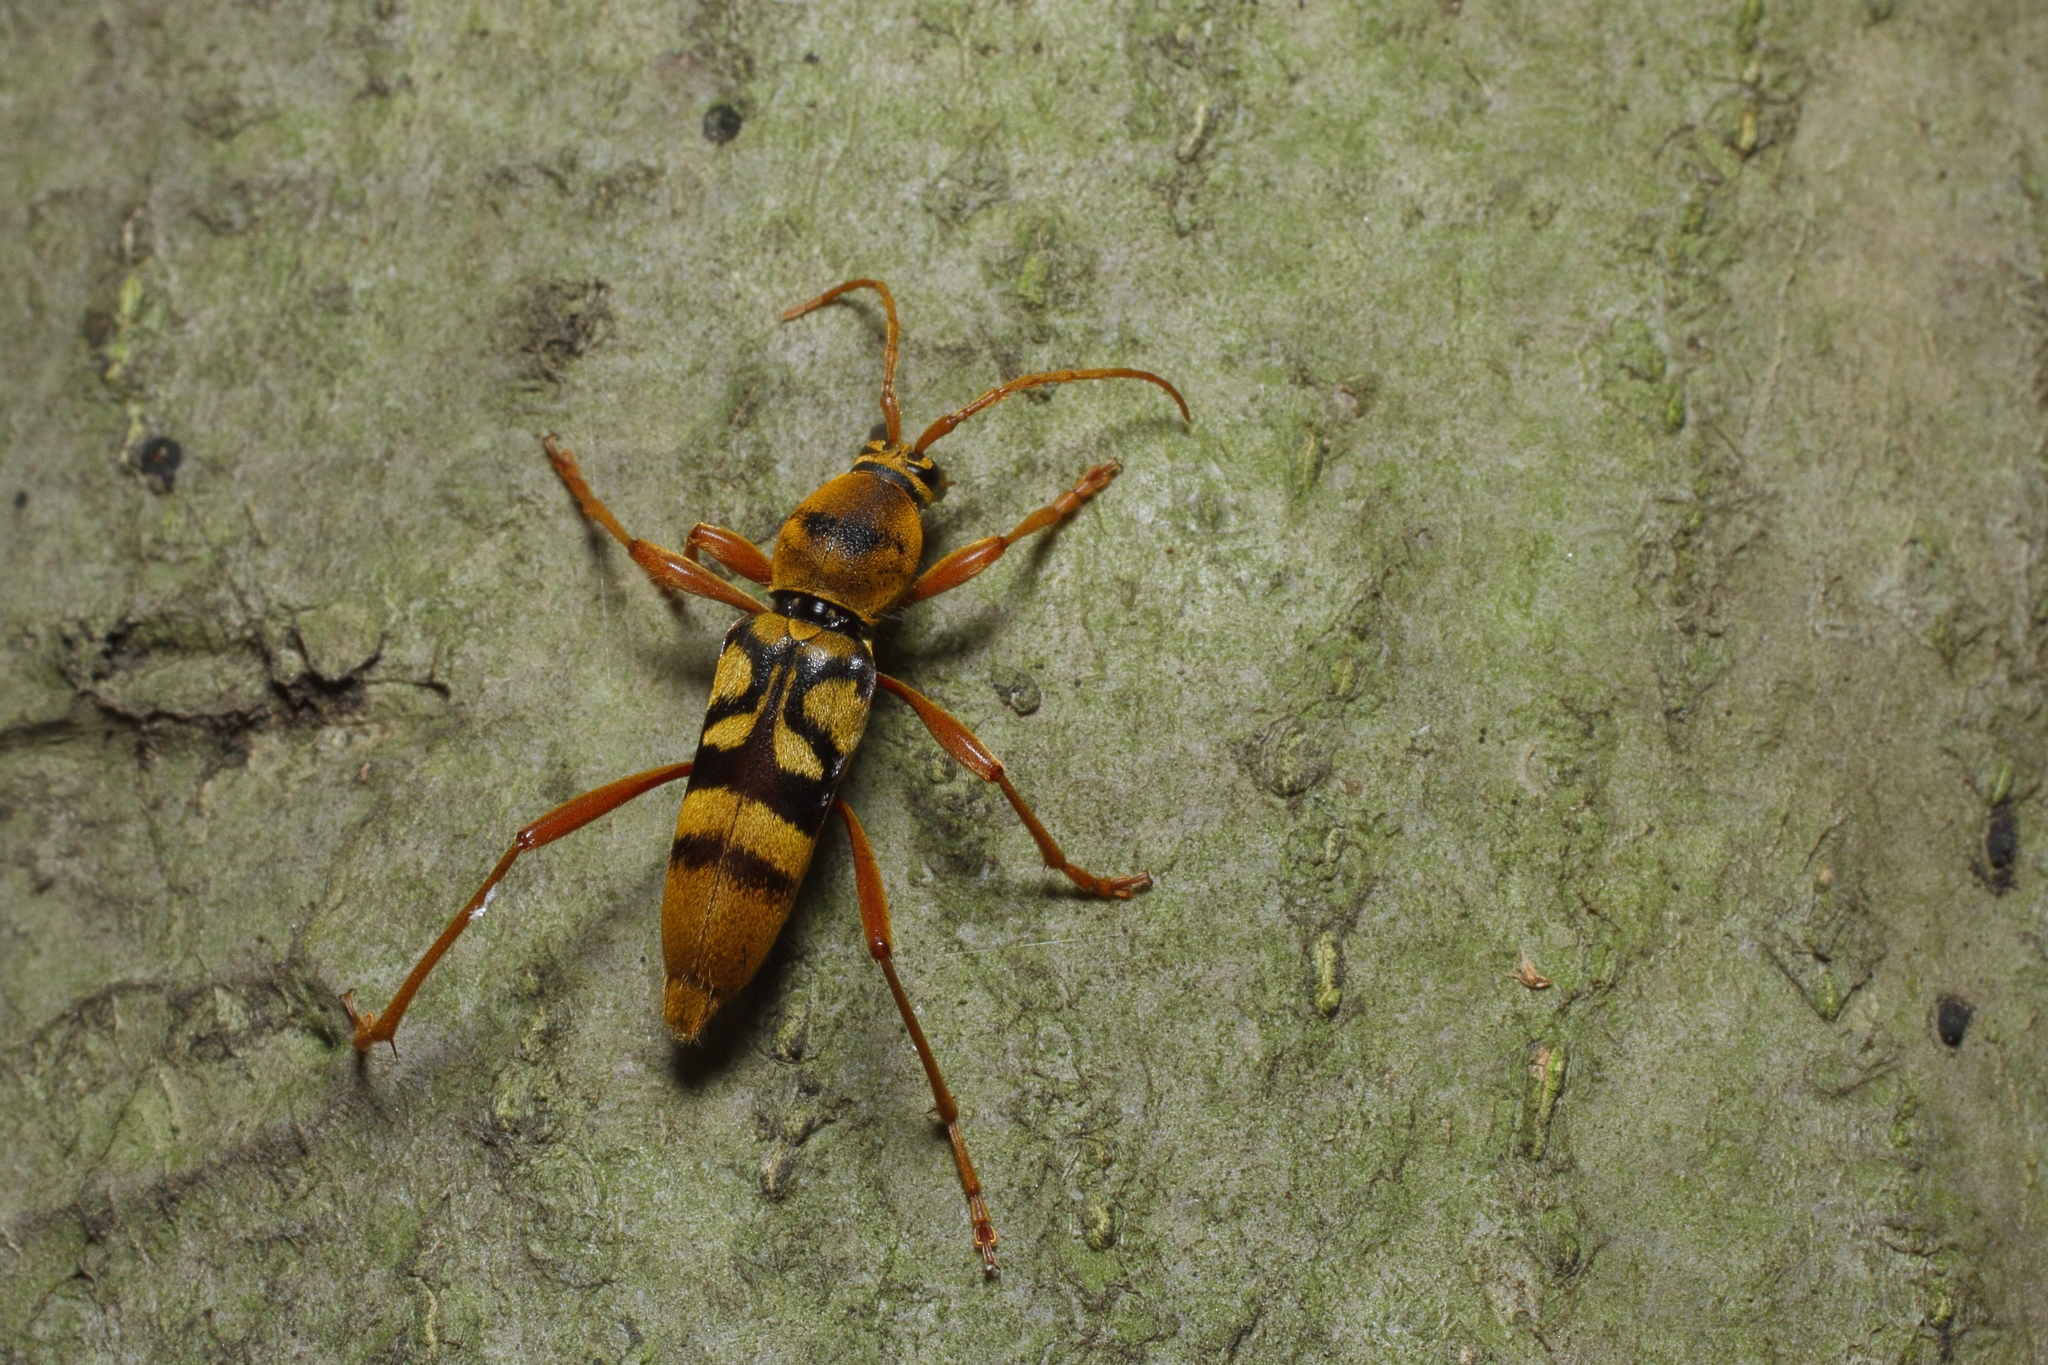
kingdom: Animalia
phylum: Arthropoda
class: Insecta
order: Coleoptera
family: Cerambycidae
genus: Chlorophorus
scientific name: Chlorophorus quinquefasciatus
